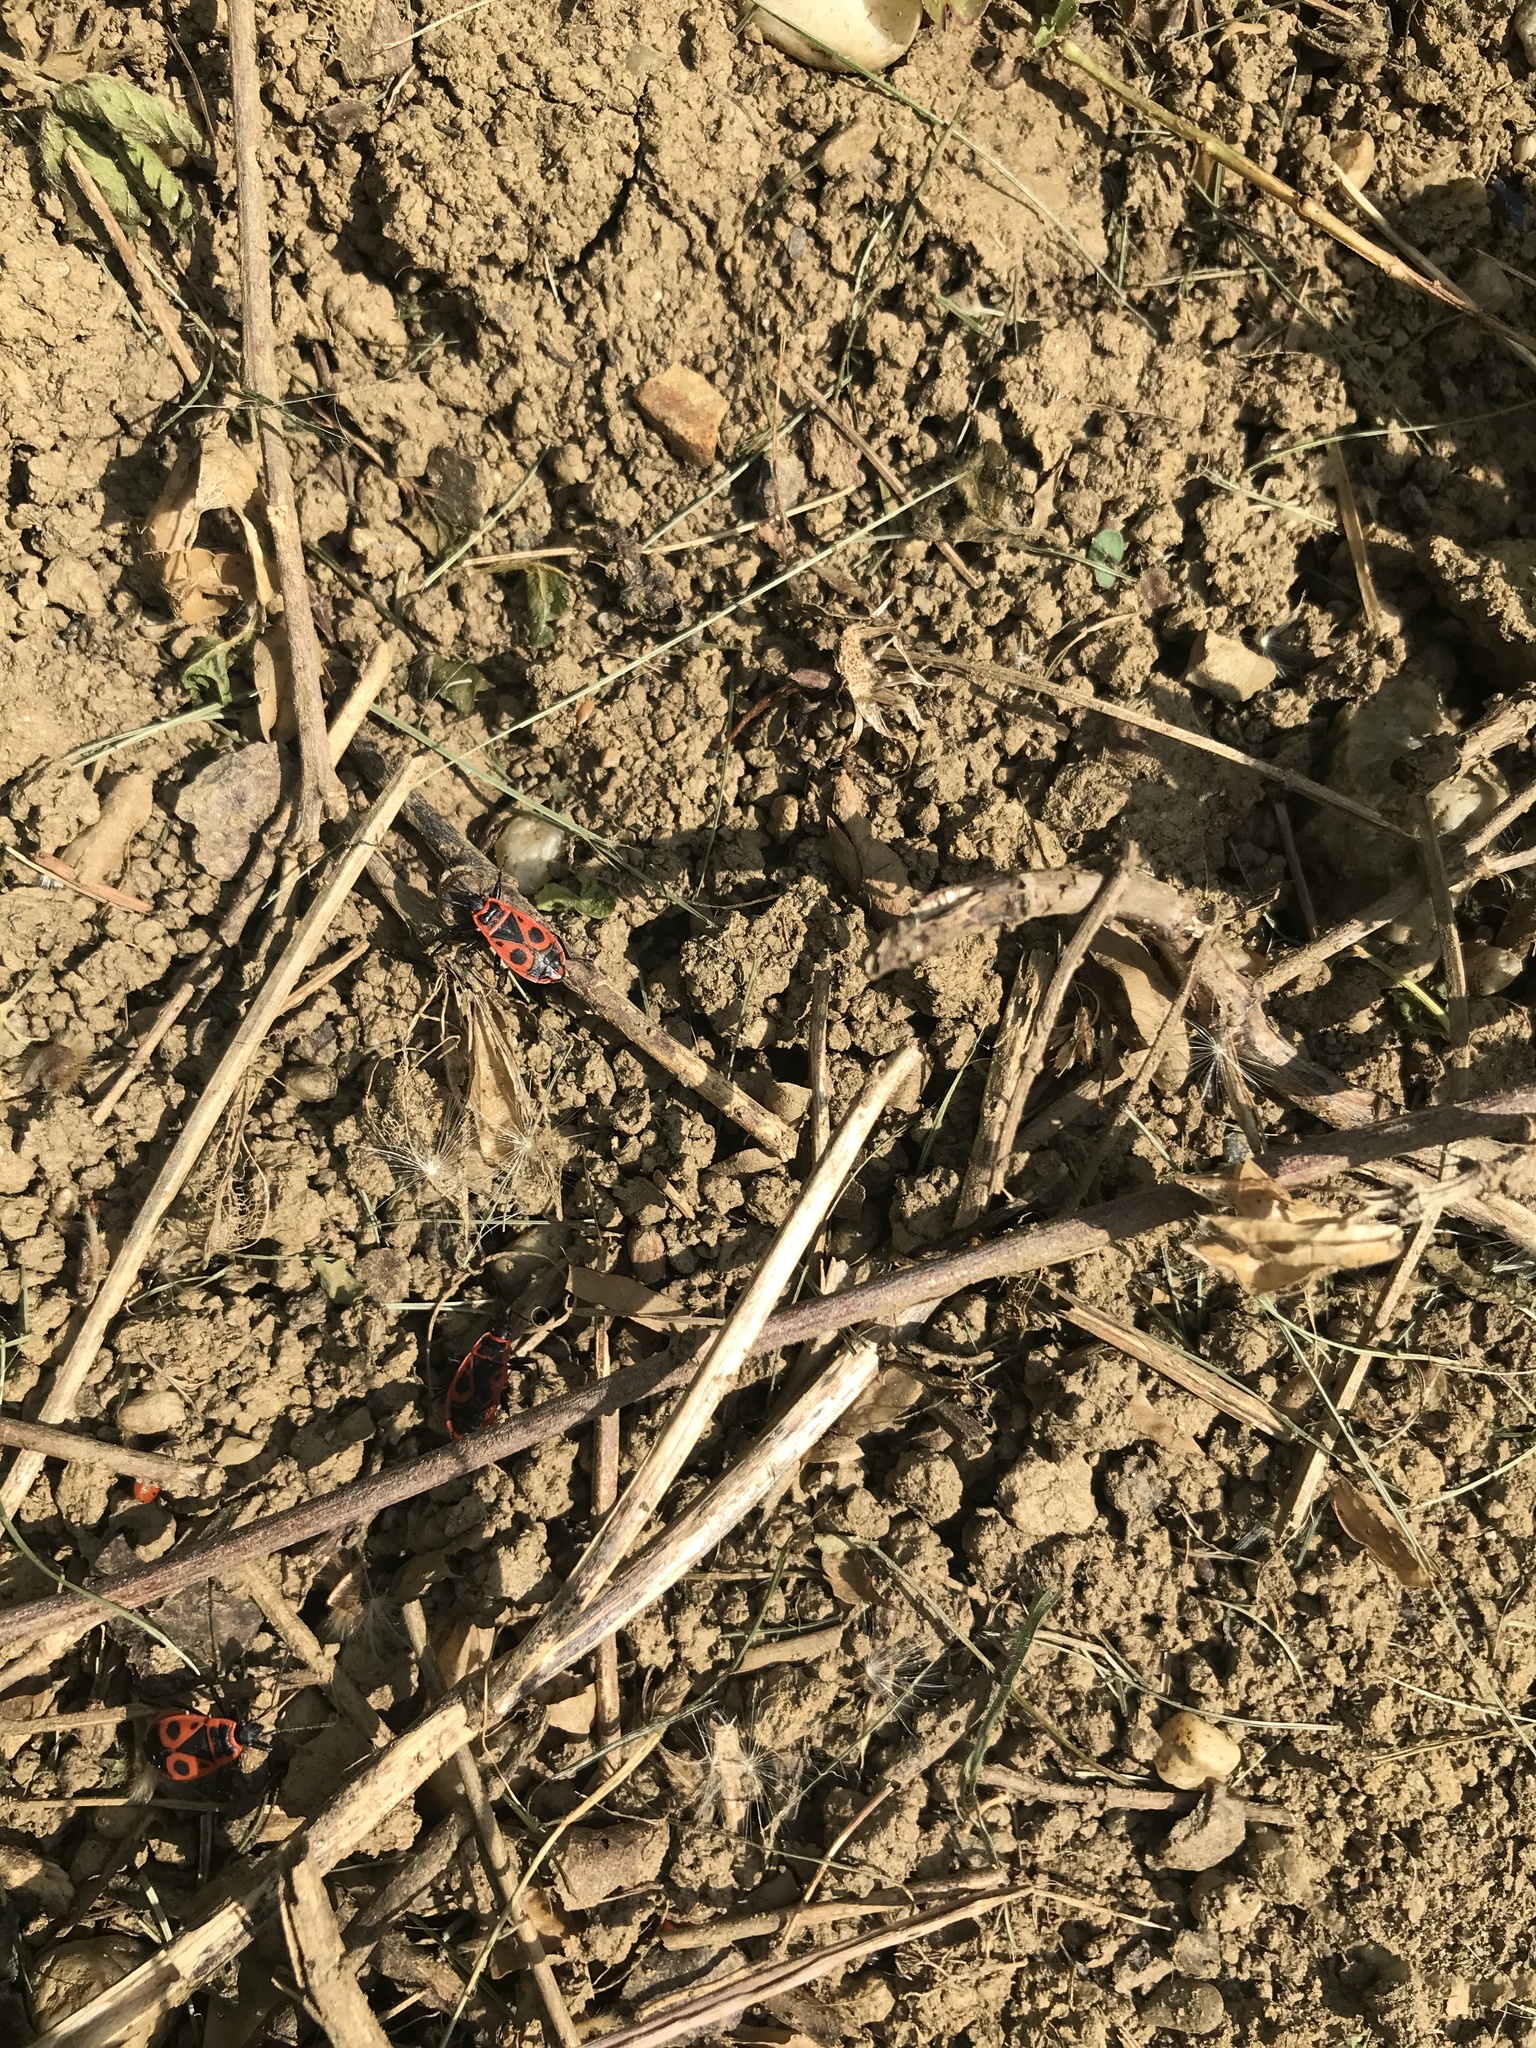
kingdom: Animalia
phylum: Arthropoda
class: Insecta
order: Hemiptera
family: Pyrrhocoridae
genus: Pyrrhocoris
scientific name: Pyrrhocoris apterus
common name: Firebug
